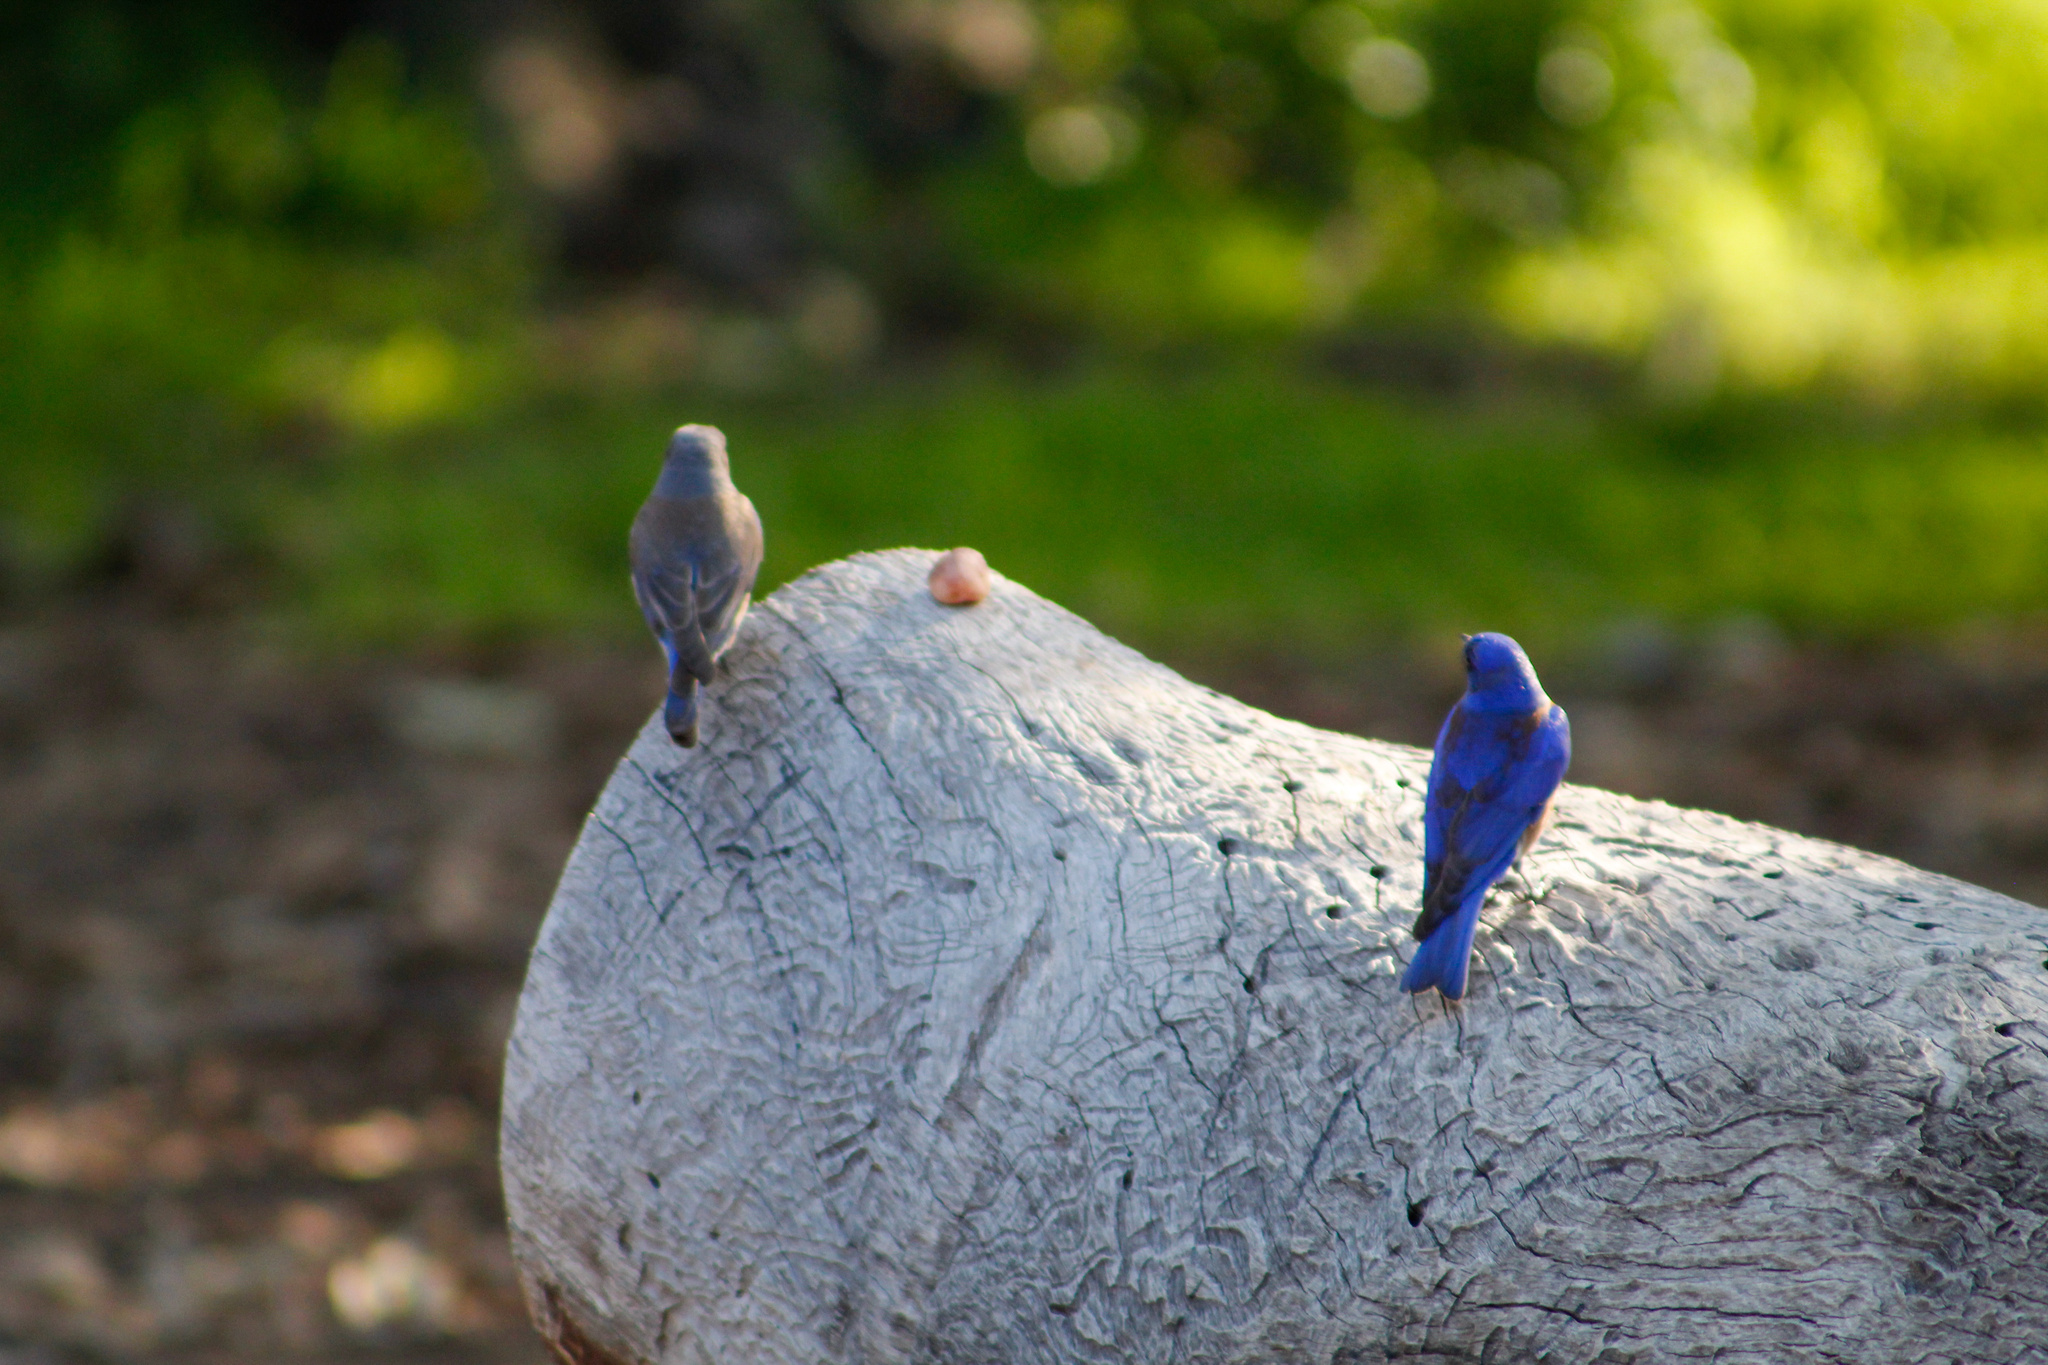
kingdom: Animalia
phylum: Chordata
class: Aves
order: Passeriformes
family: Turdidae
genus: Sialia
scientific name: Sialia mexicana
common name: Western bluebird
